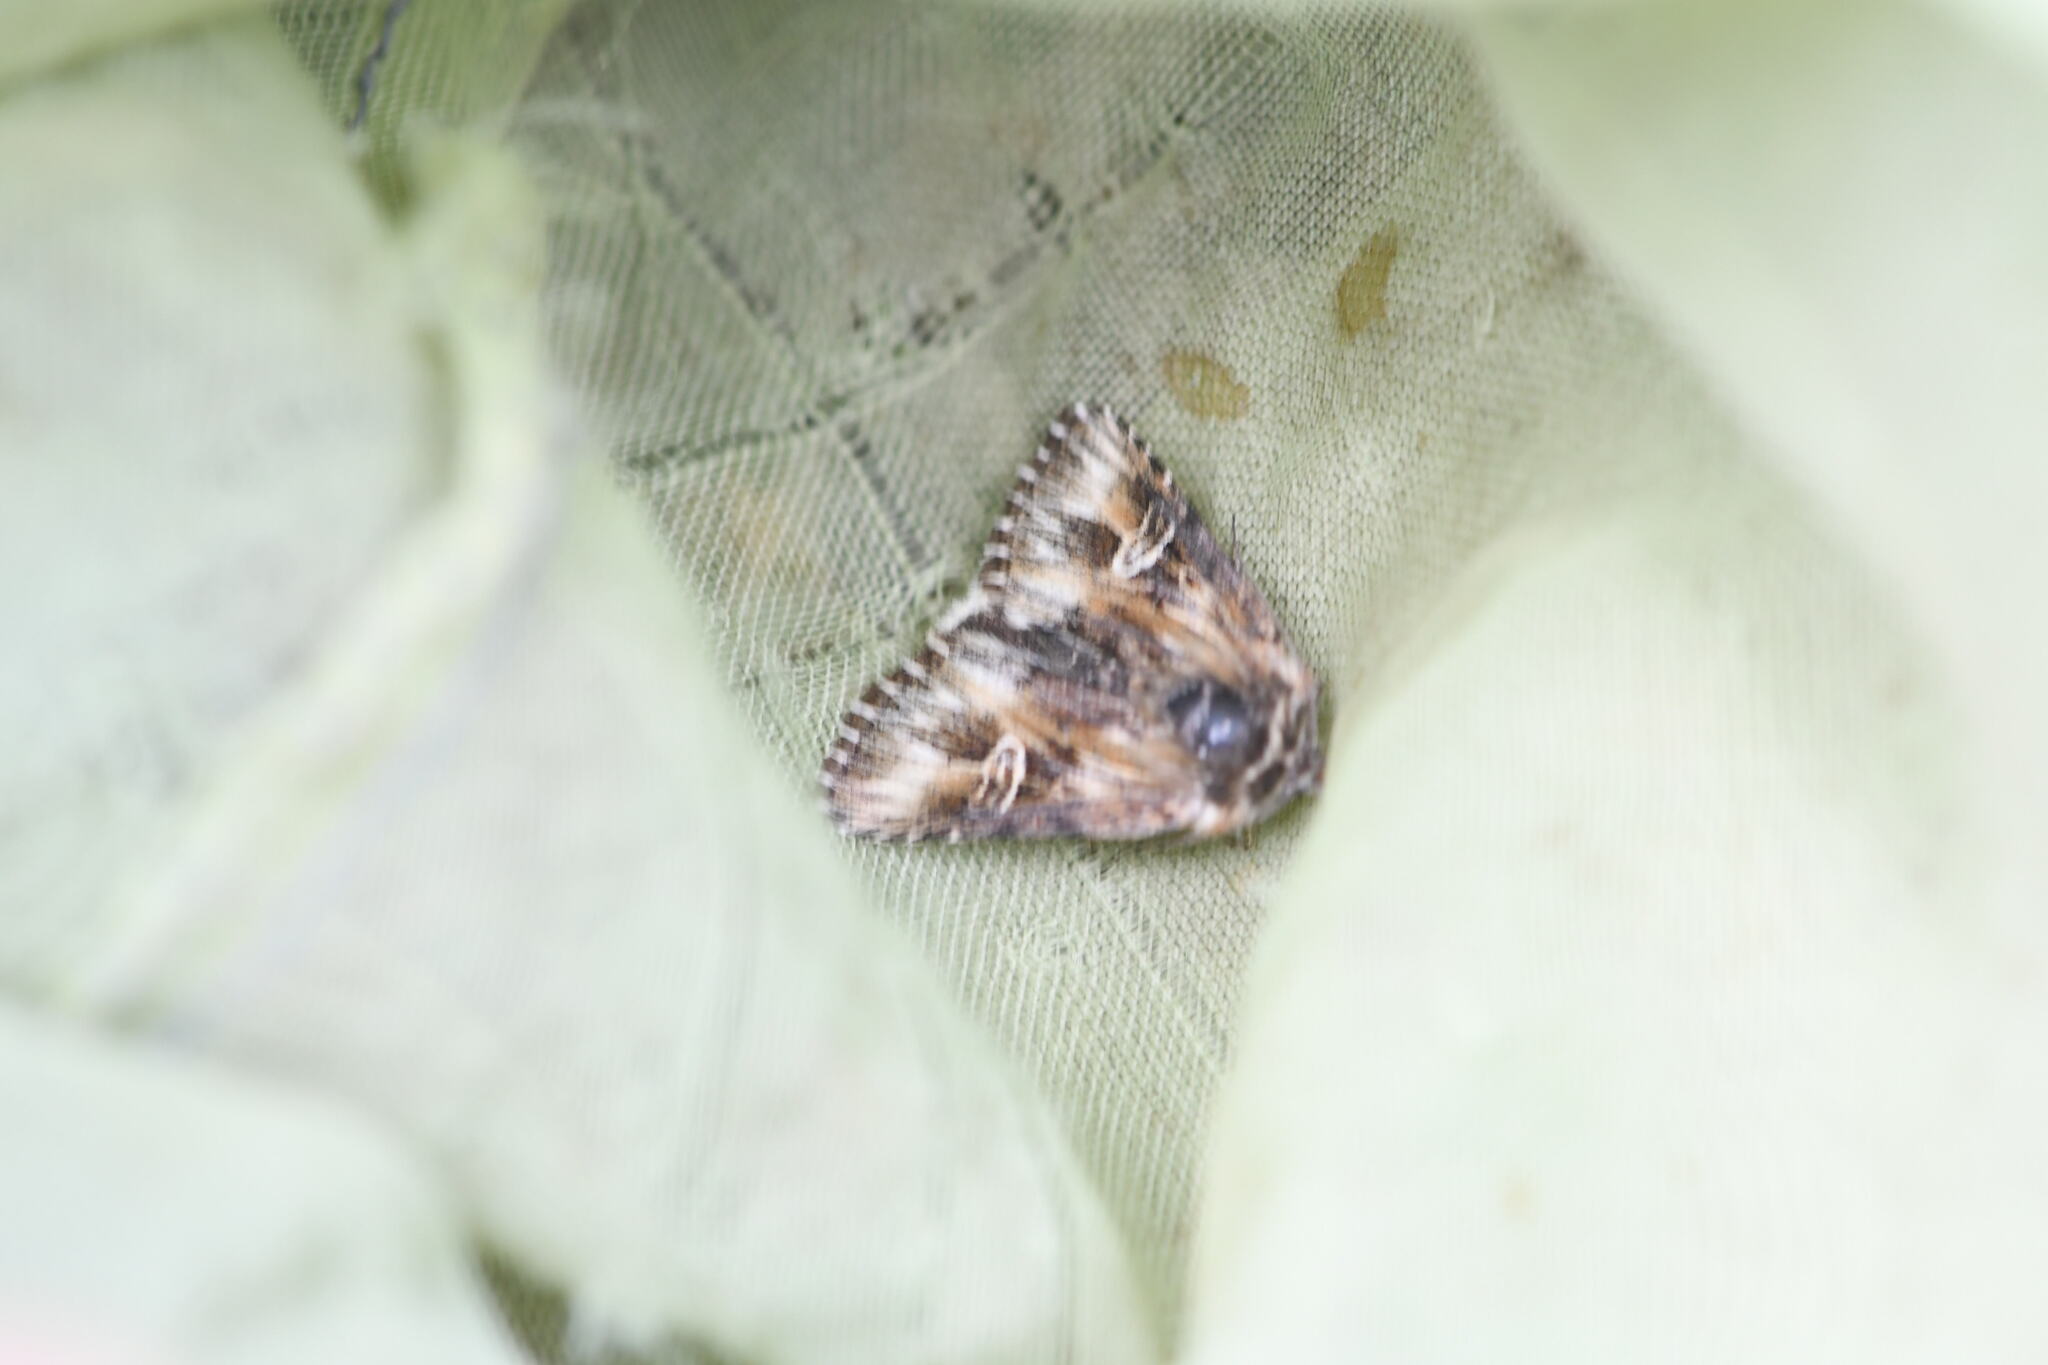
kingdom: Animalia
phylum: Arthropoda
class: Insecta
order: Lepidoptera
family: Noctuidae
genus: Actinotia
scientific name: Actinotia radiosa
